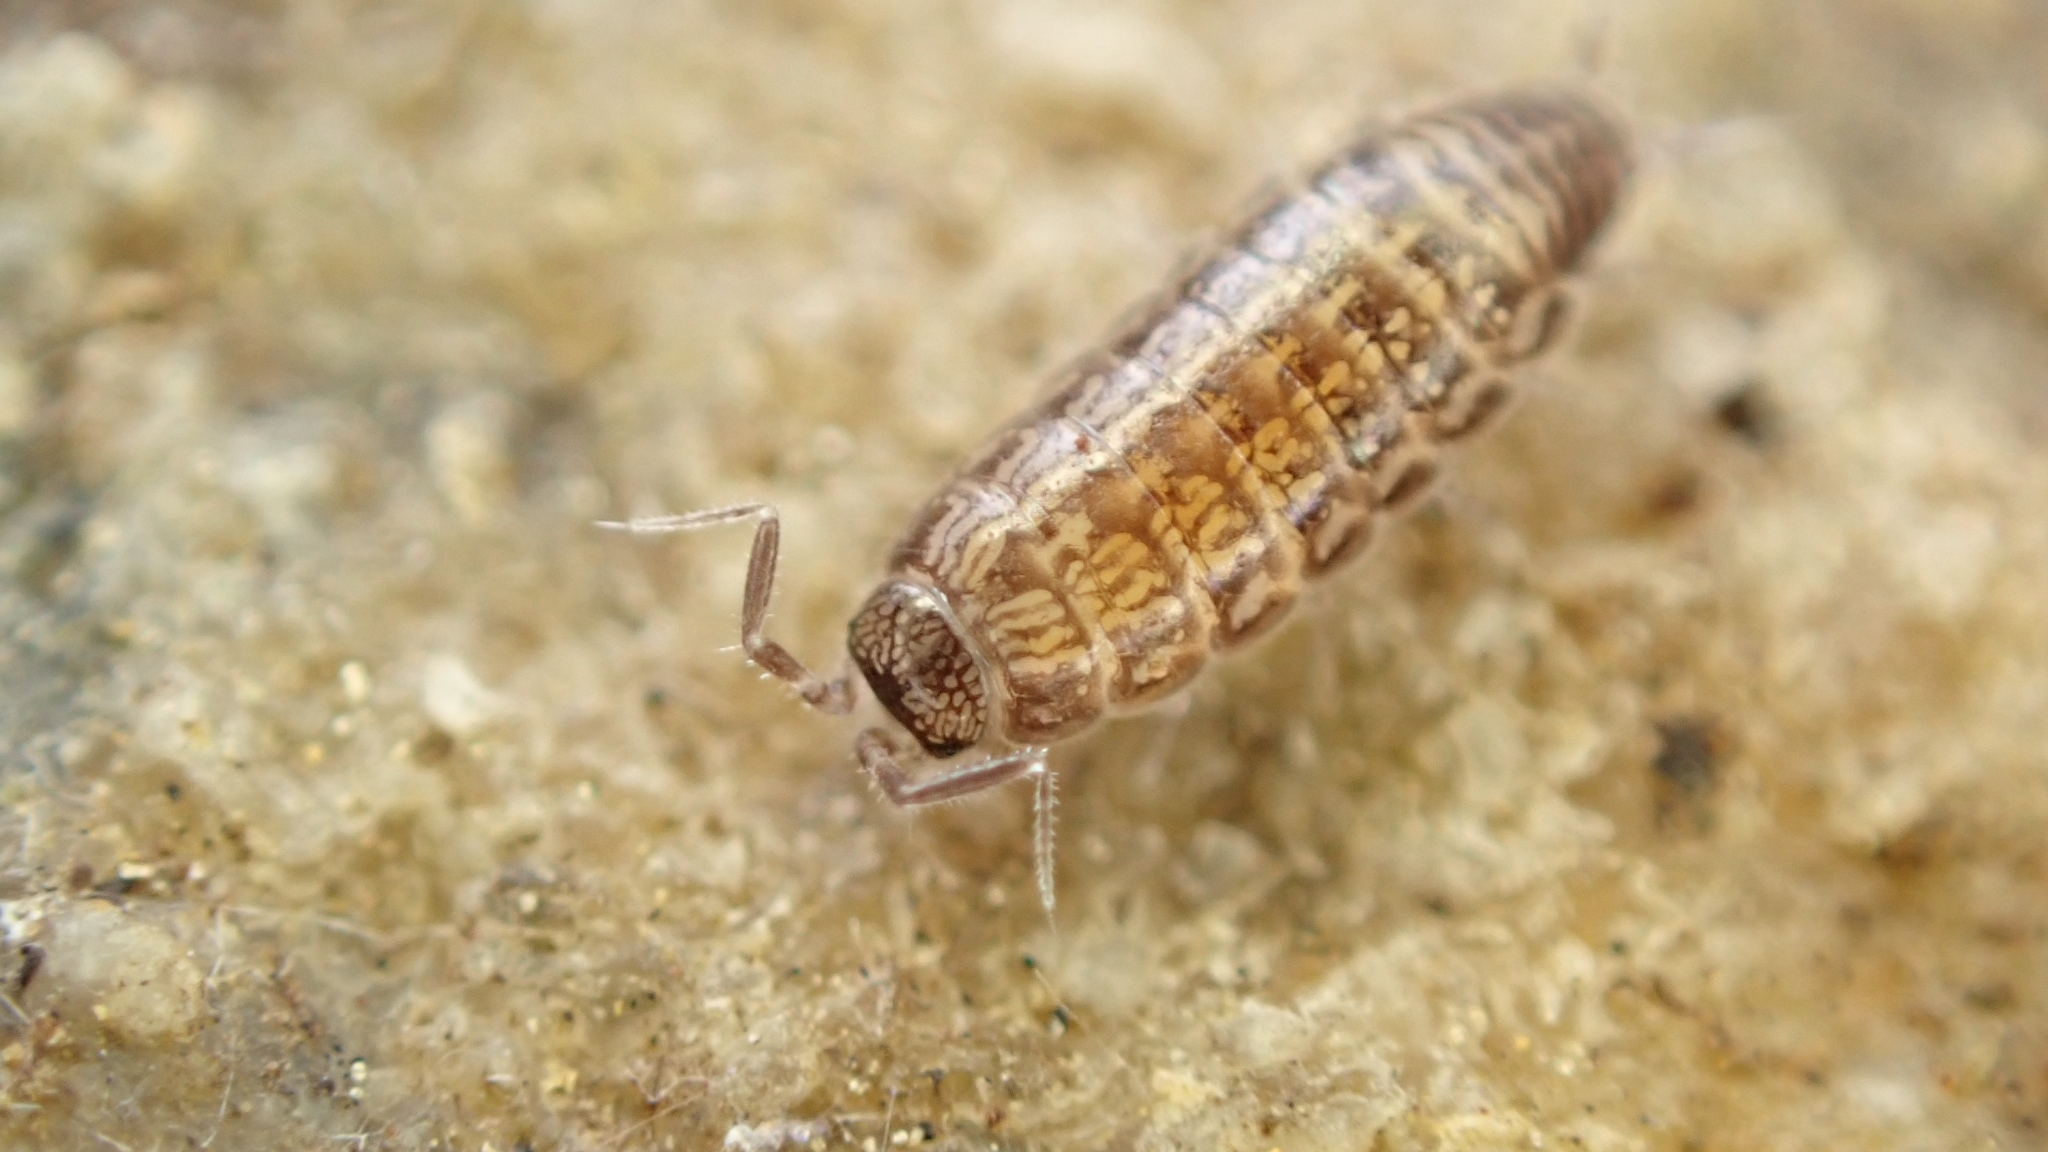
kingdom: Animalia
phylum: Arthropoda
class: Malacostraca
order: Isopoda
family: Philosciidae
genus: Ctenoscia
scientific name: Ctenoscia minima
